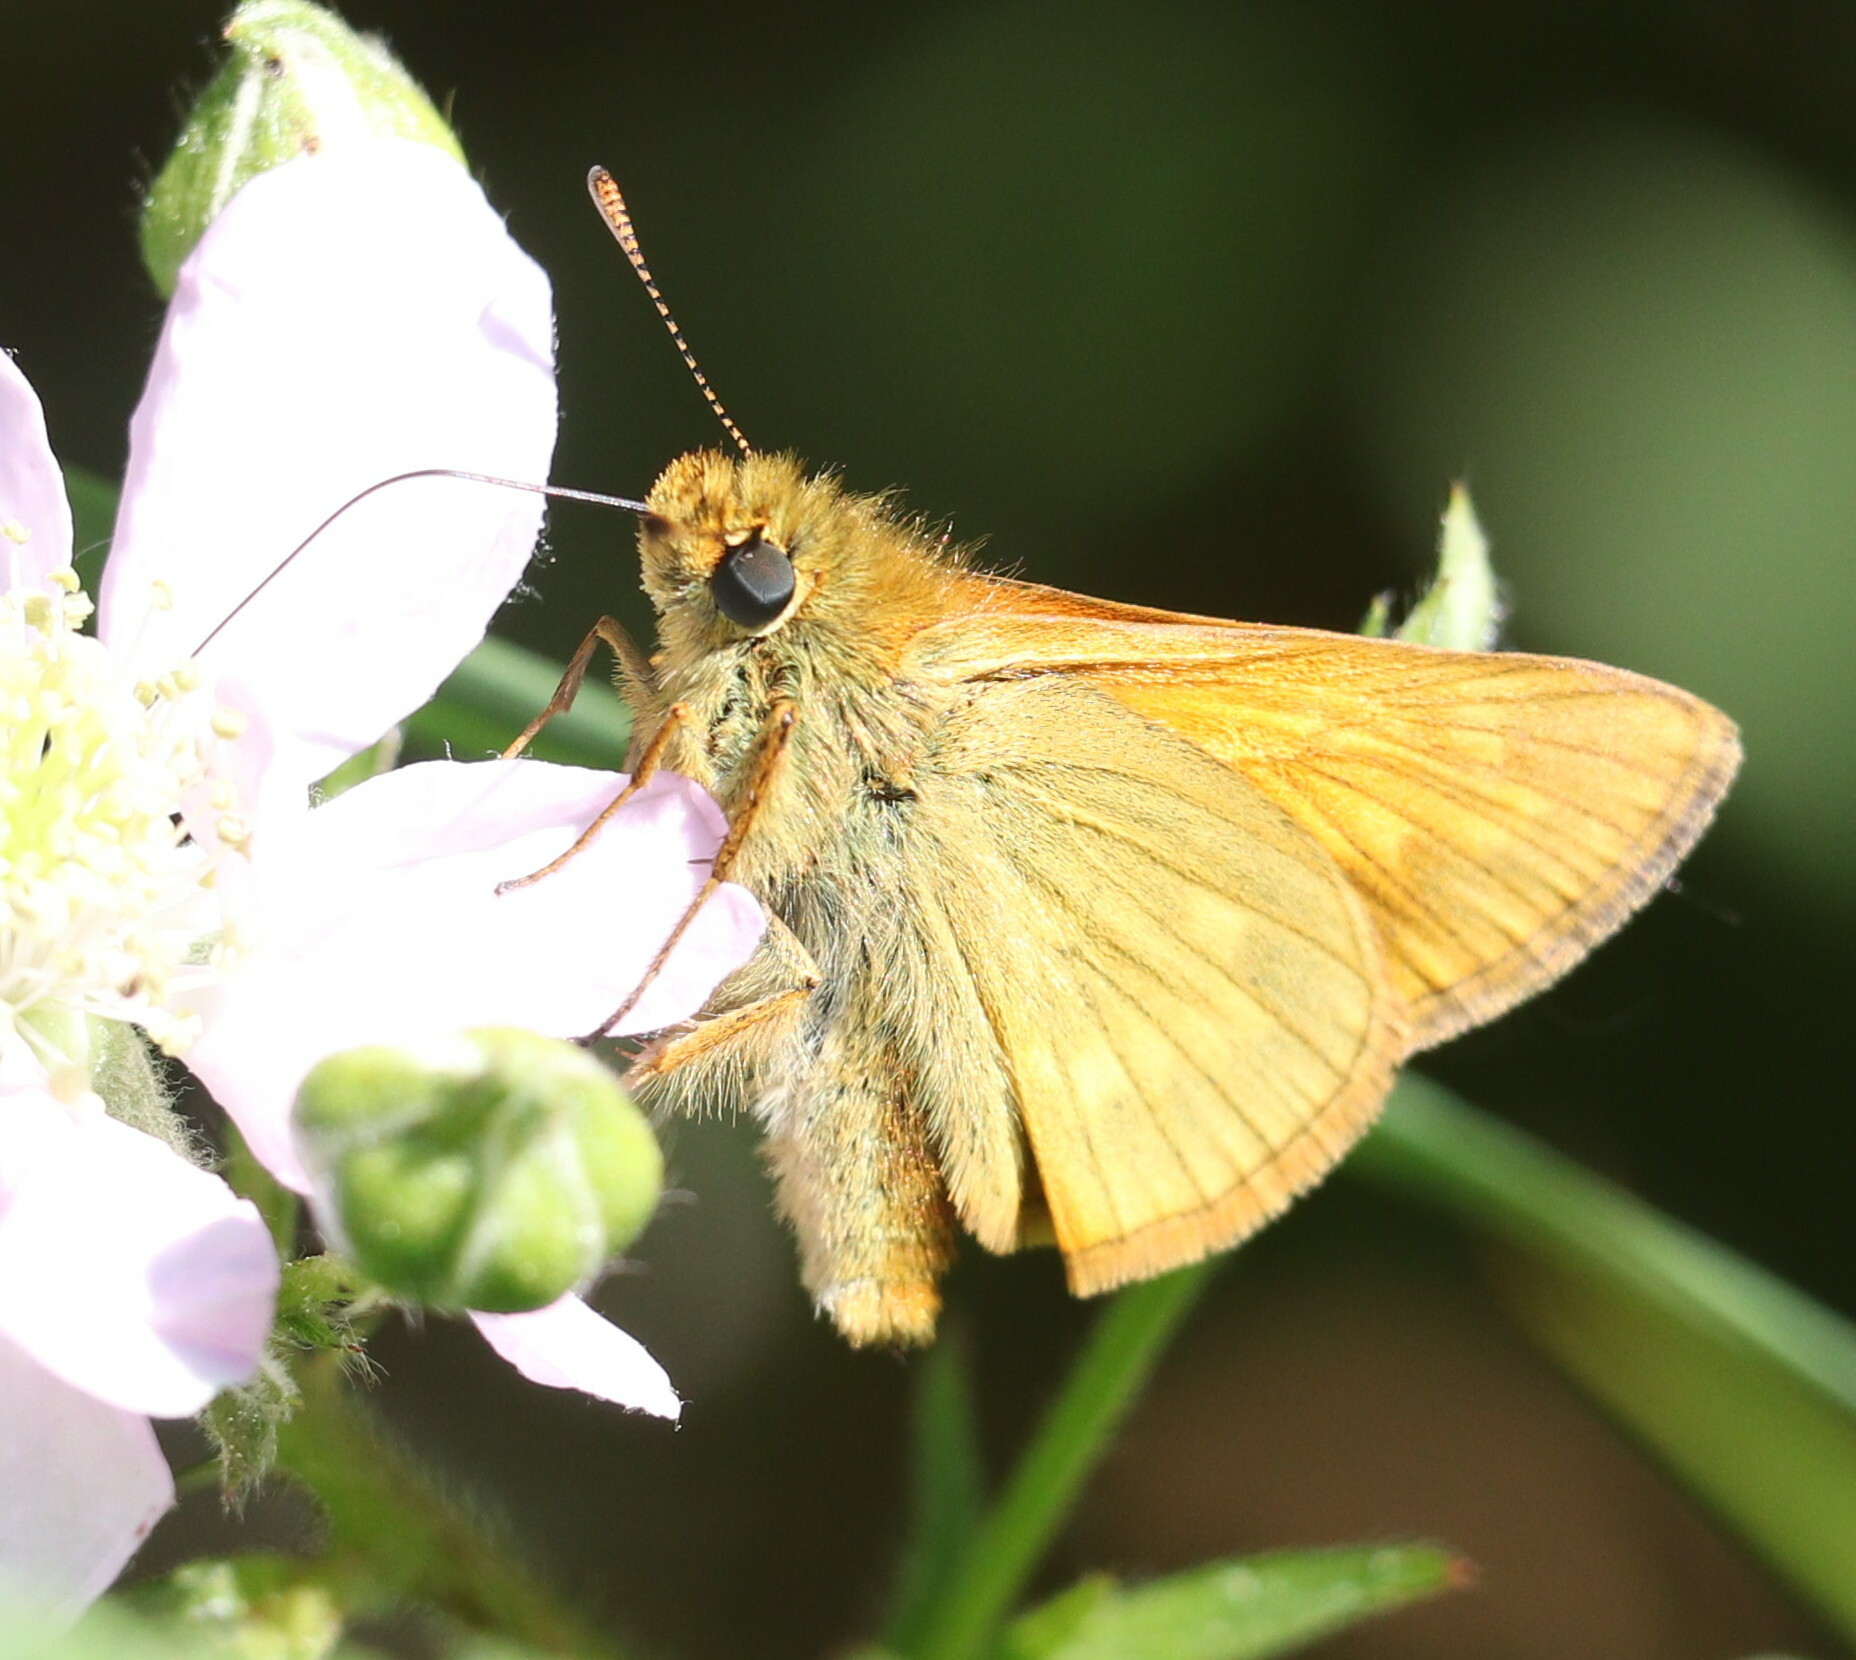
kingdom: Animalia
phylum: Arthropoda
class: Insecta
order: Lepidoptera
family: Hesperiidae
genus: Ochlodes
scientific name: Ochlodes venata
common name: Large skipper
